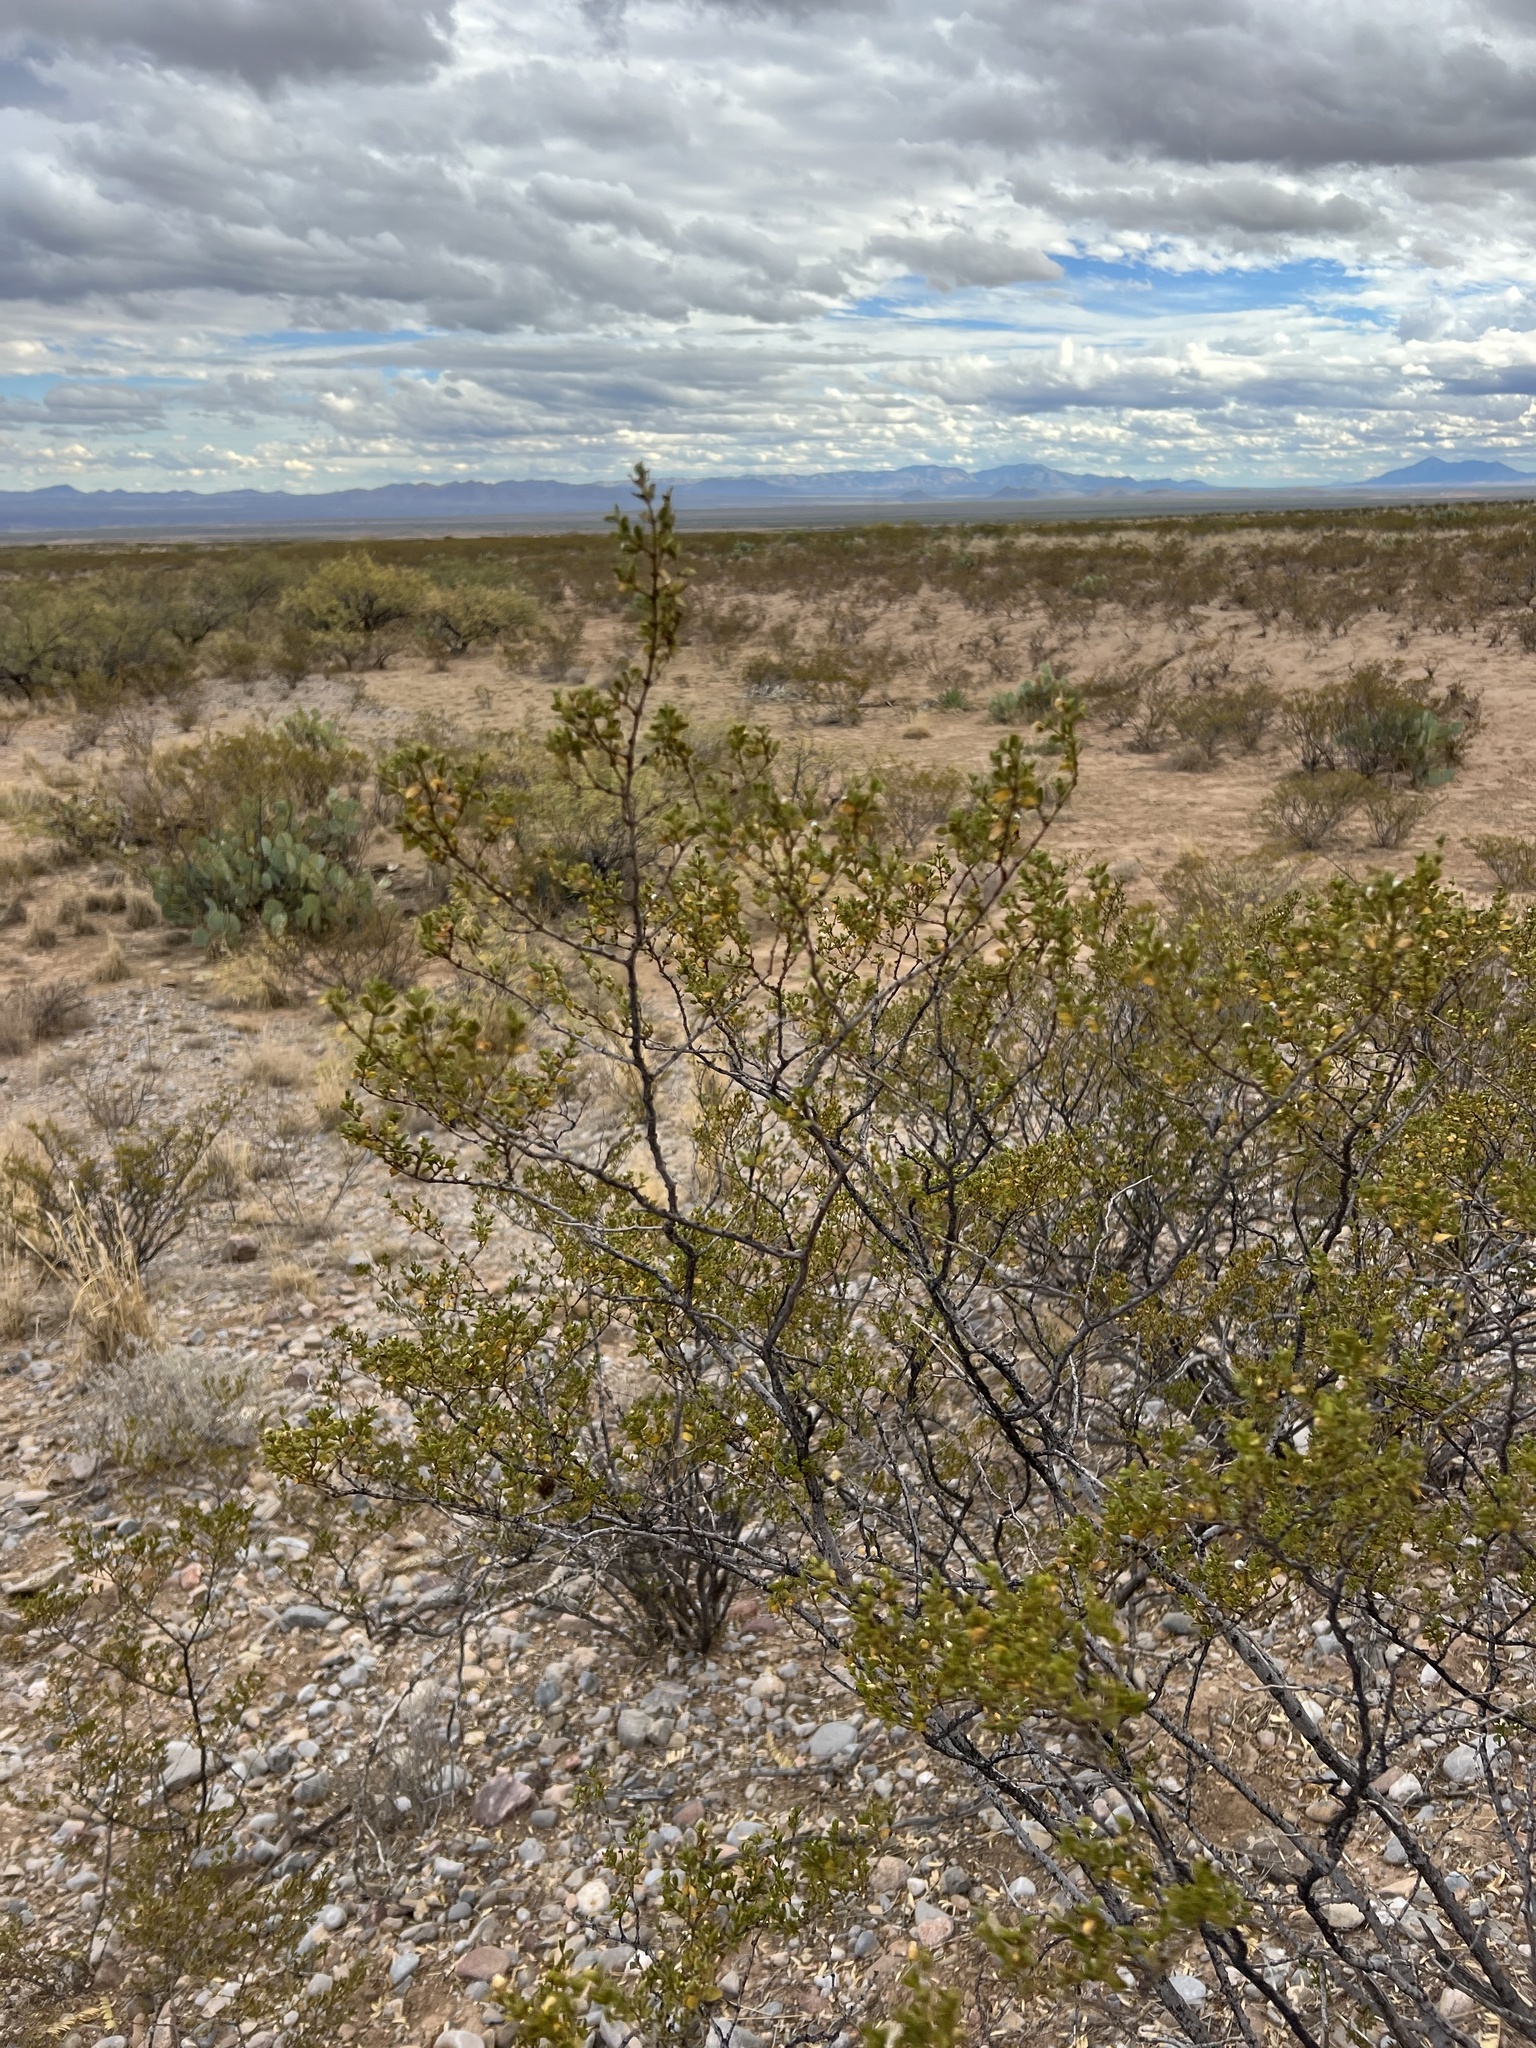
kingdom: Plantae
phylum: Tracheophyta
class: Magnoliopsida
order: Zygophyllales
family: Zygophyllaceae
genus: Larrea
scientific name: Larrea tridentata
